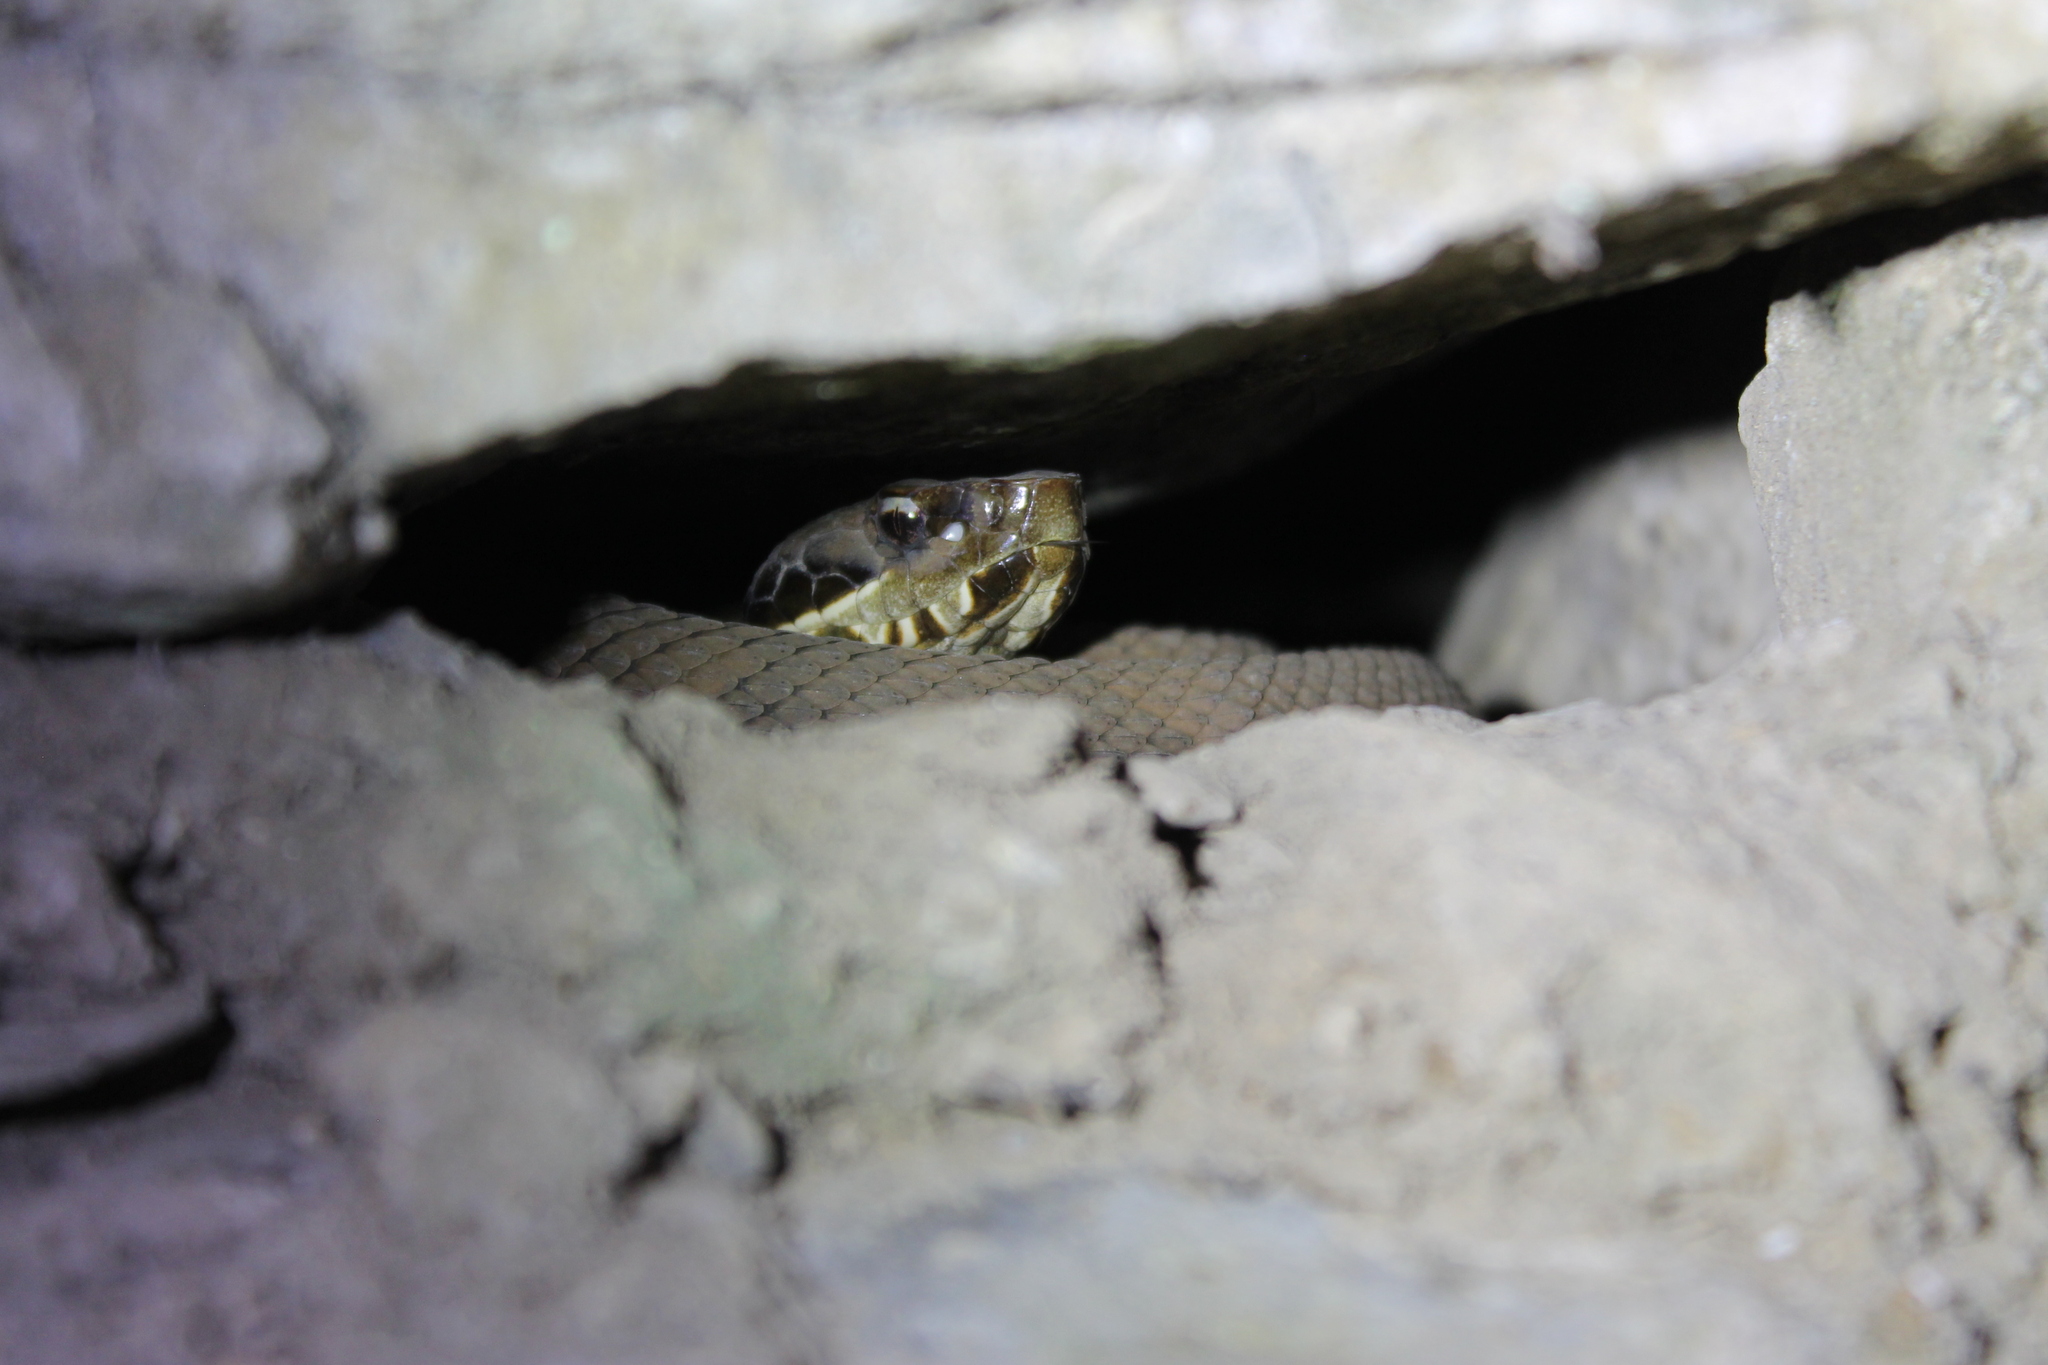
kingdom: Animalia
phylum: Chordata
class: Squamata
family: Viperidae
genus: Agkistrodon
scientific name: Agkistrodon piscivorus
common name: Cottonmouth
